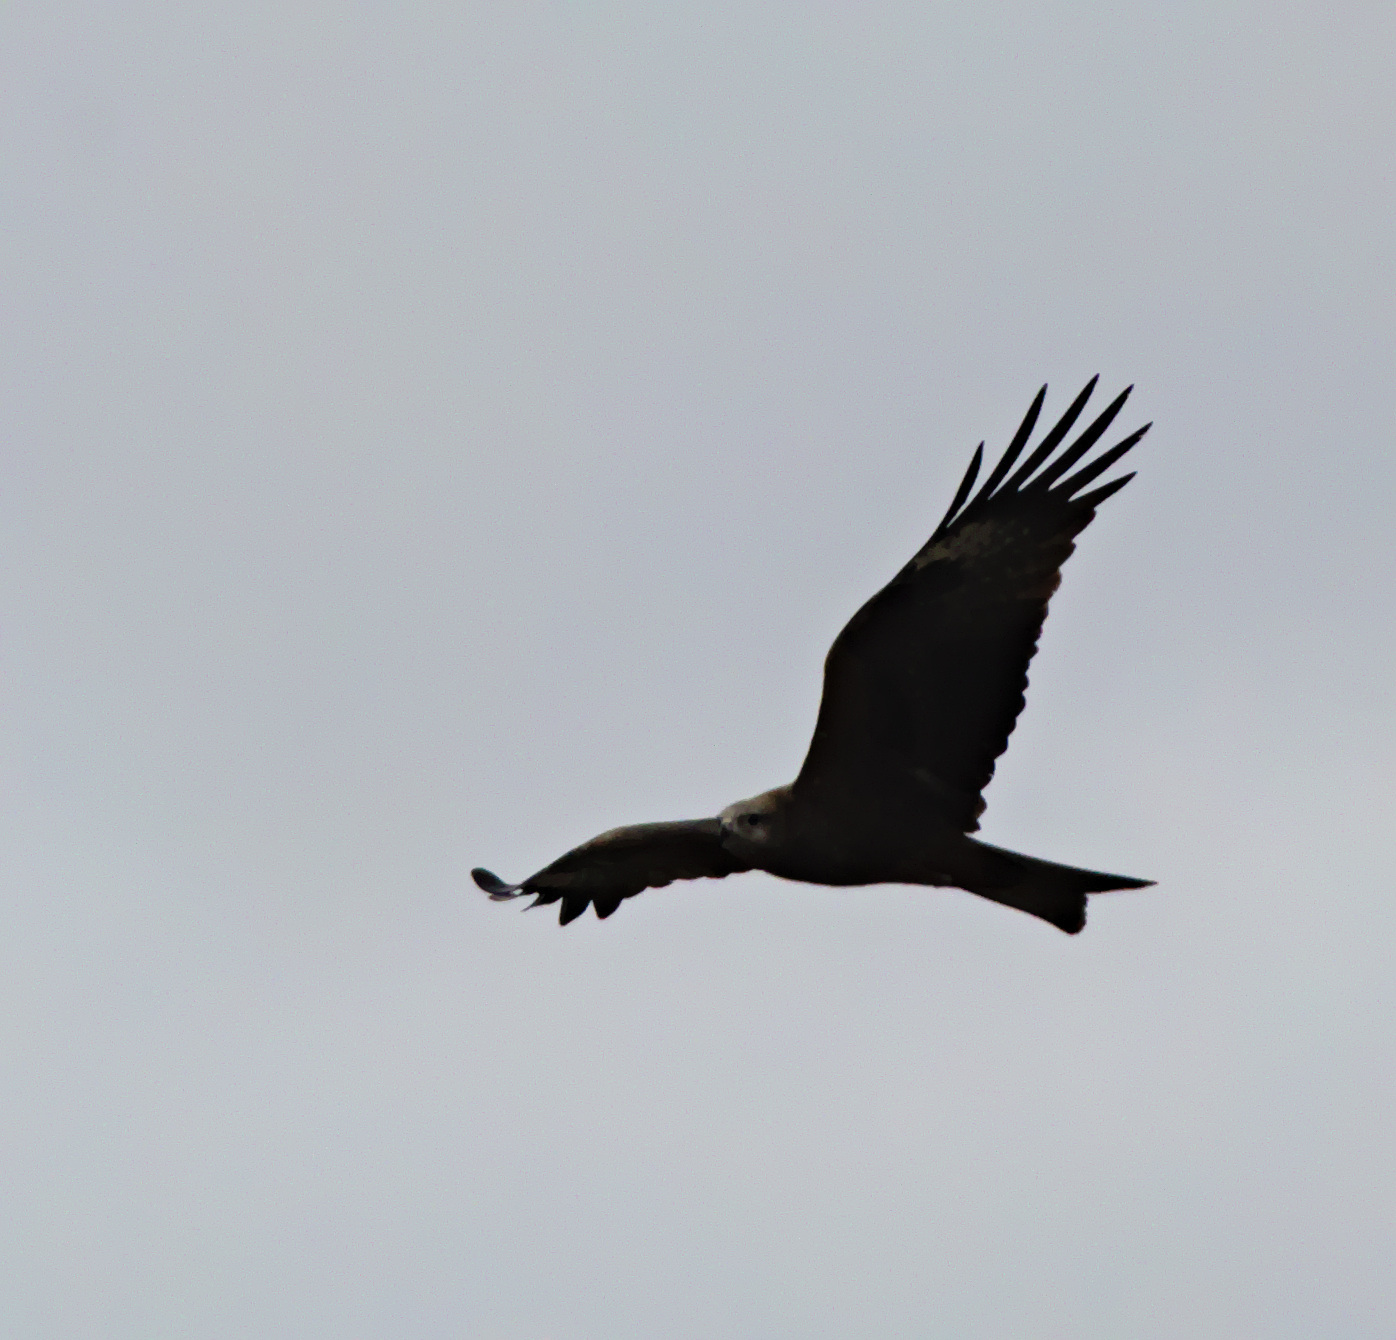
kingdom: Animalia
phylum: Chordata
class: Aves
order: Accipitriformes
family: Accipitridae
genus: Milvus
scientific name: Milvus migrans
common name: Black kite
